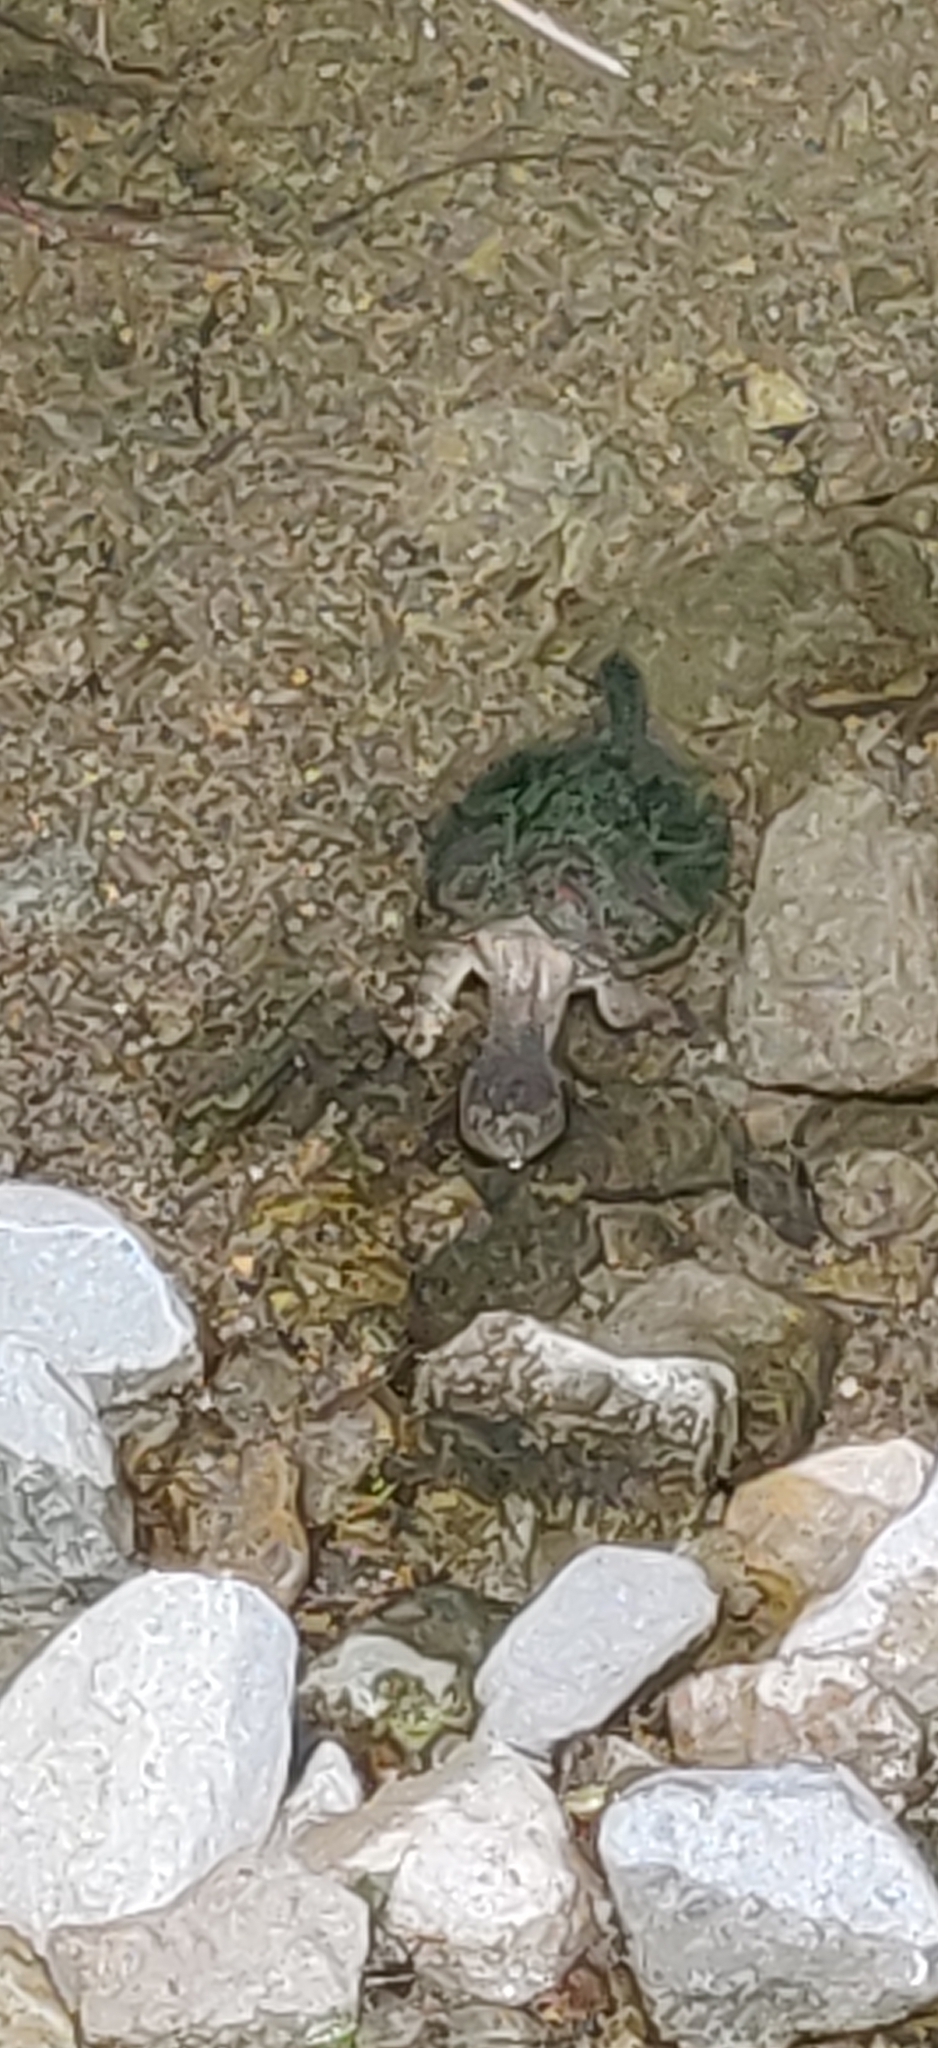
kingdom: Animalia
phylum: Chordata
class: Testudines
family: Chelydridae
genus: Chelydra
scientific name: Chelydra serpentina
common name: Common snapping turtle
